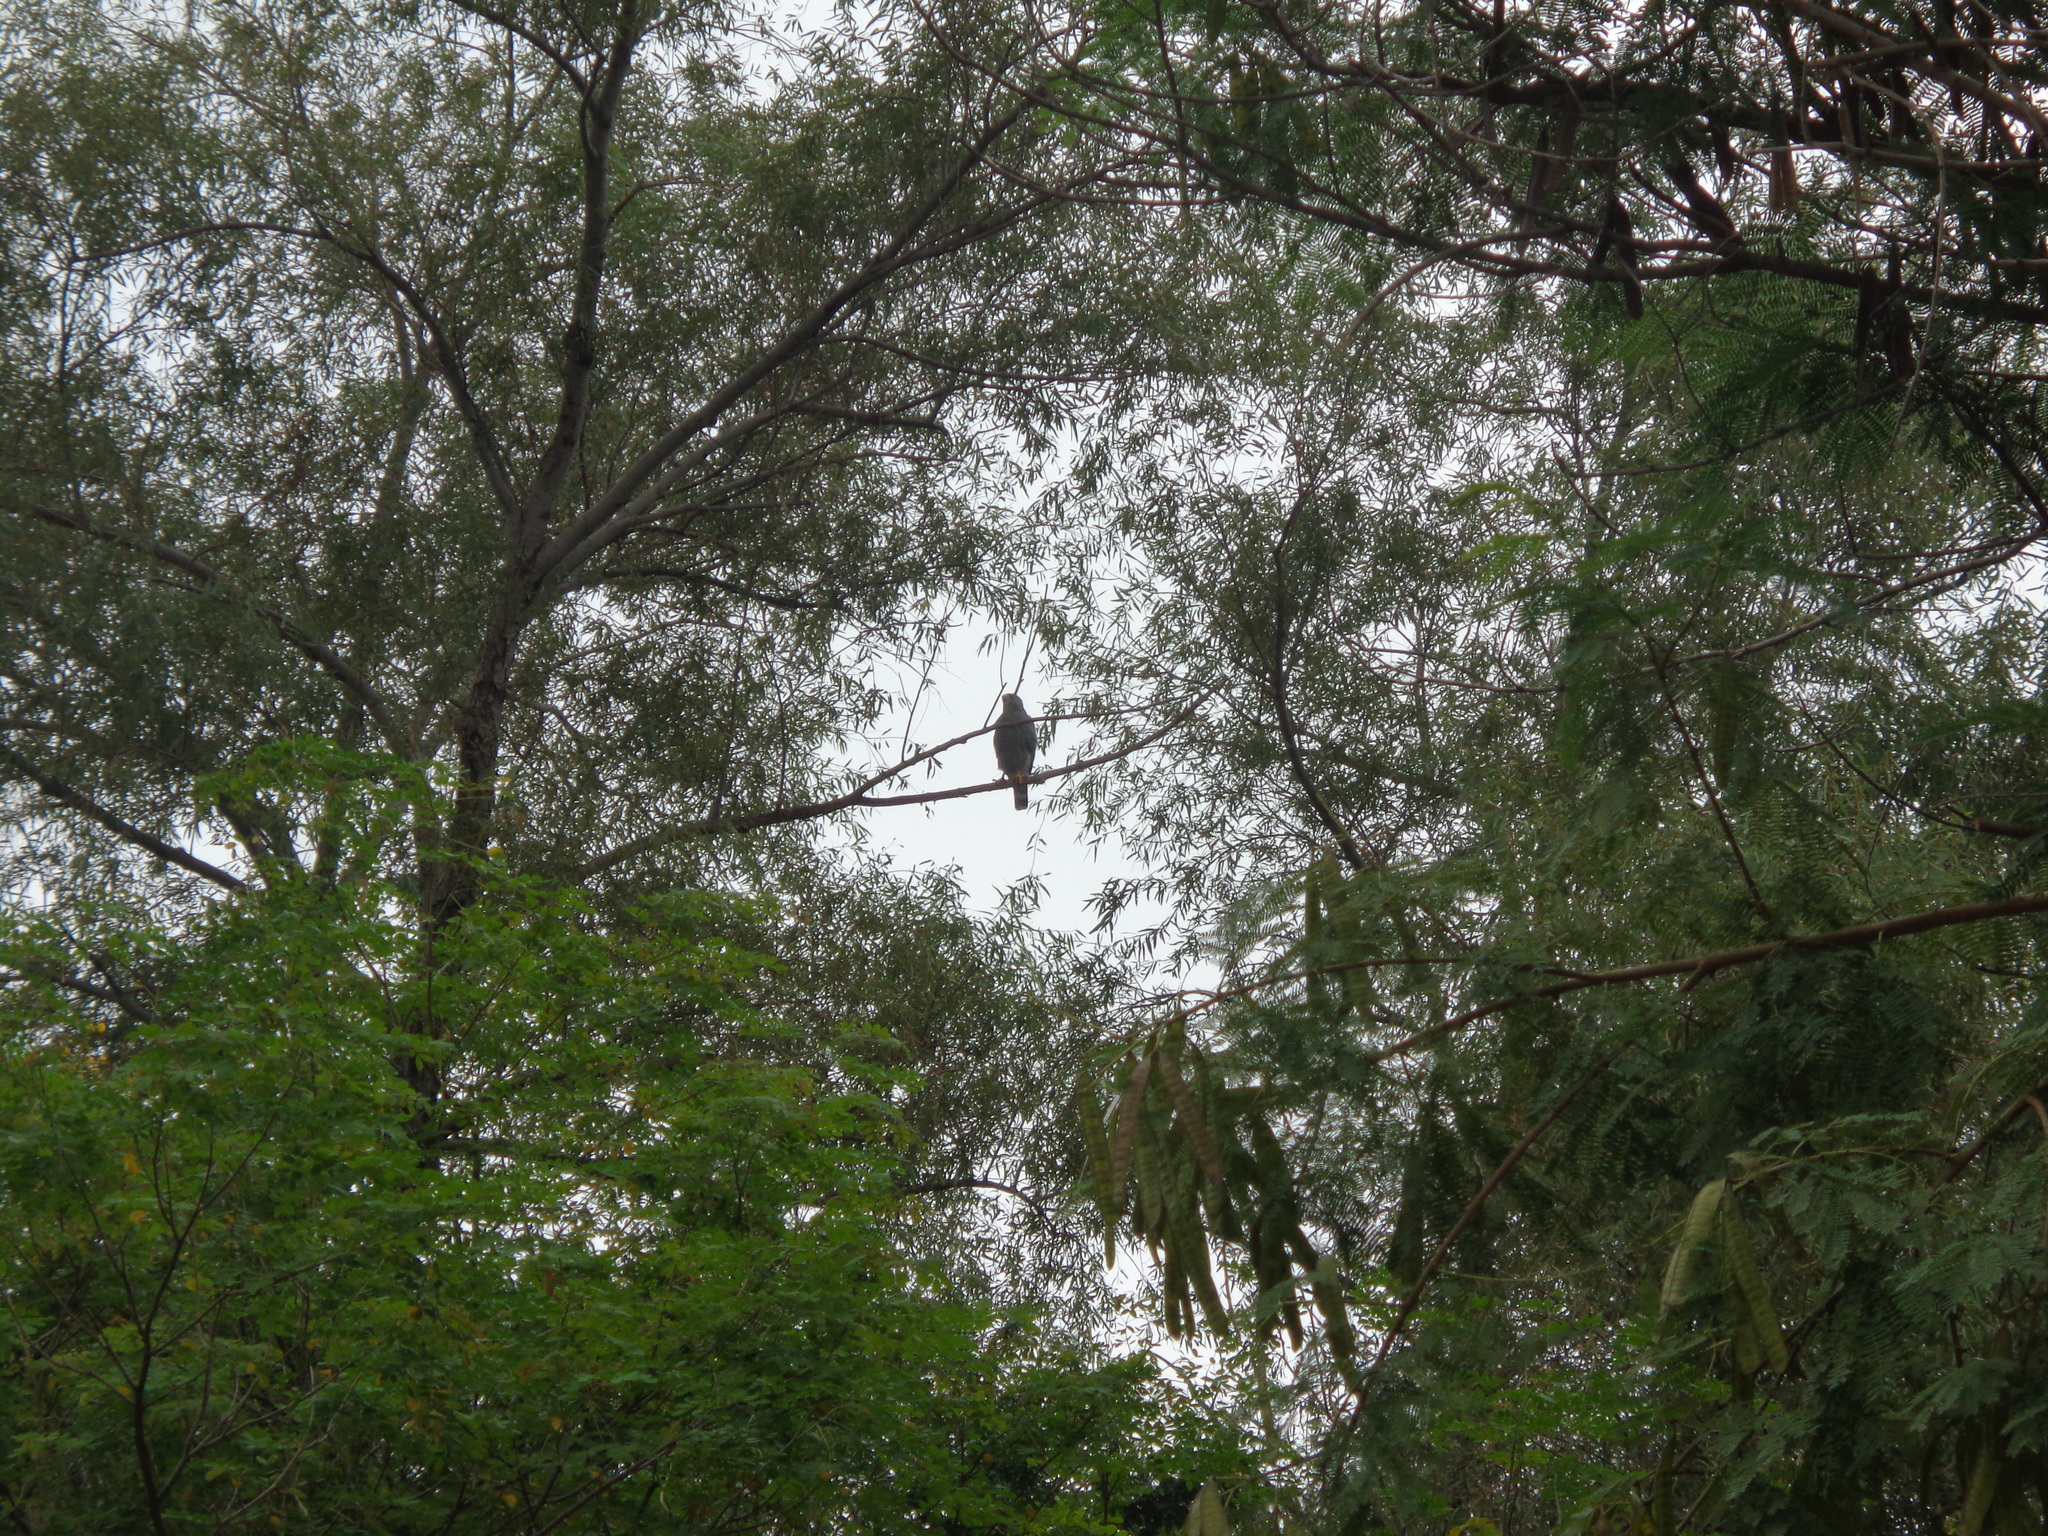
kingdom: Animalia
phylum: Chordata
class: Aves
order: Accipitriformes
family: Accipitridae
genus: Buteo
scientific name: Buteo nitidus
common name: Grey-lined hawk
